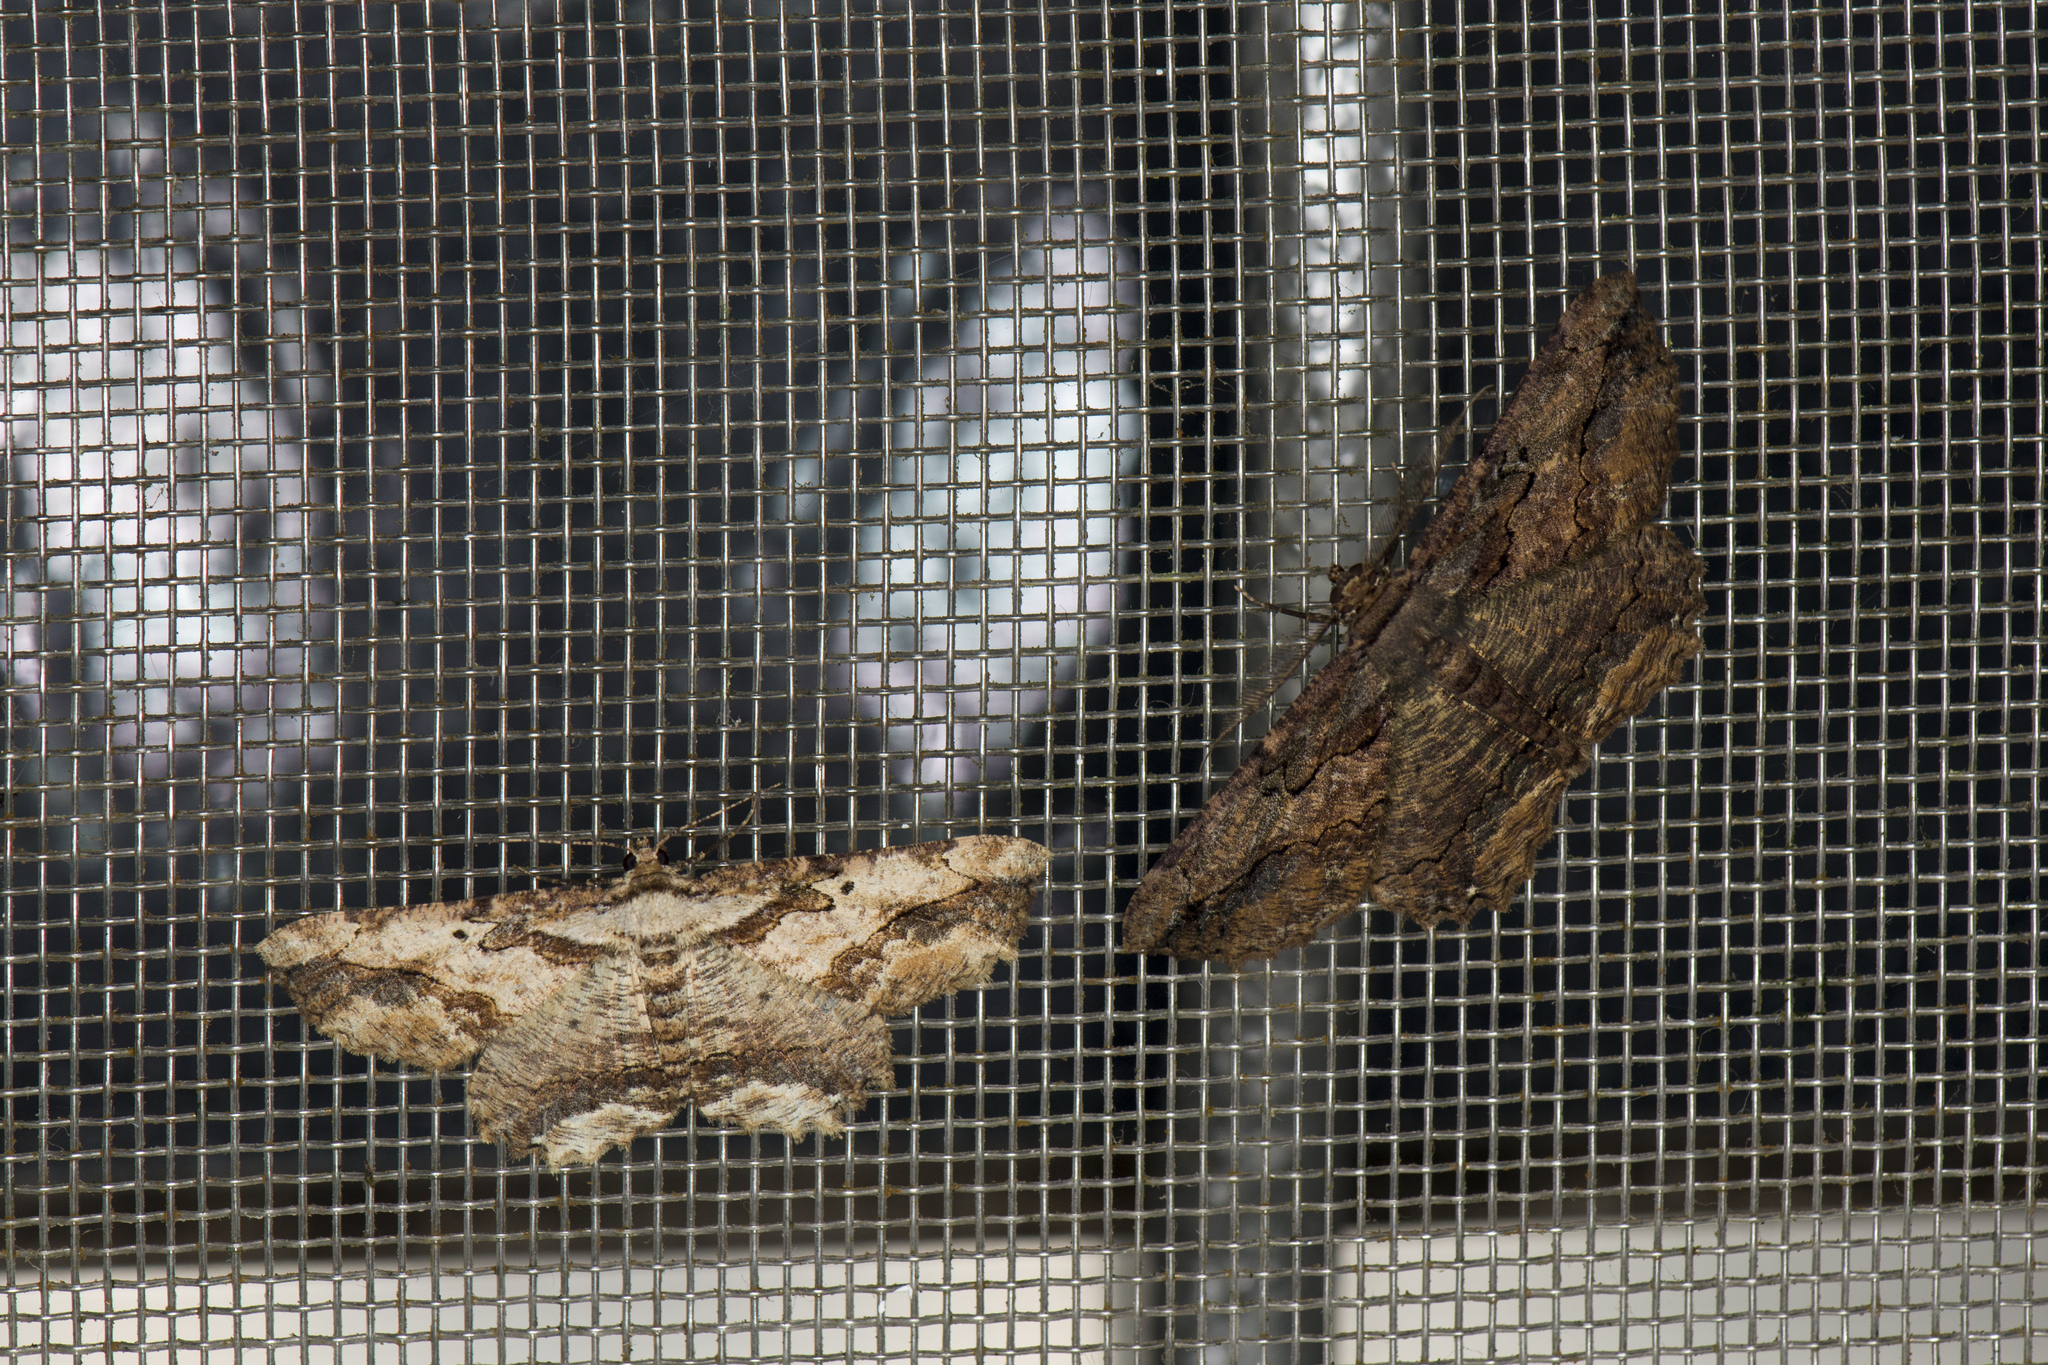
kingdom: Animalia
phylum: Arthropoda
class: Insecta
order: Lepidoptera
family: Geometridae
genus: Menophra
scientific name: Menophra mitsundoi
